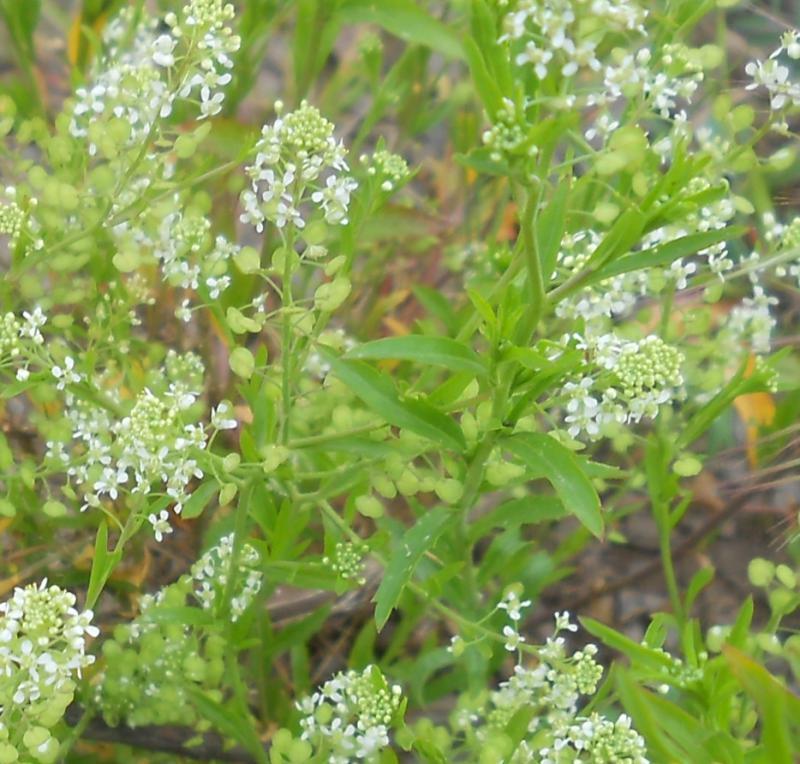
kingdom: Plantae
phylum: Tracheophyta
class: Magnoliopsida
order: Brassicales
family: Brassicaceae
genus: Lepidium
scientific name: Lepidium virginicum
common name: Least pepperwort
